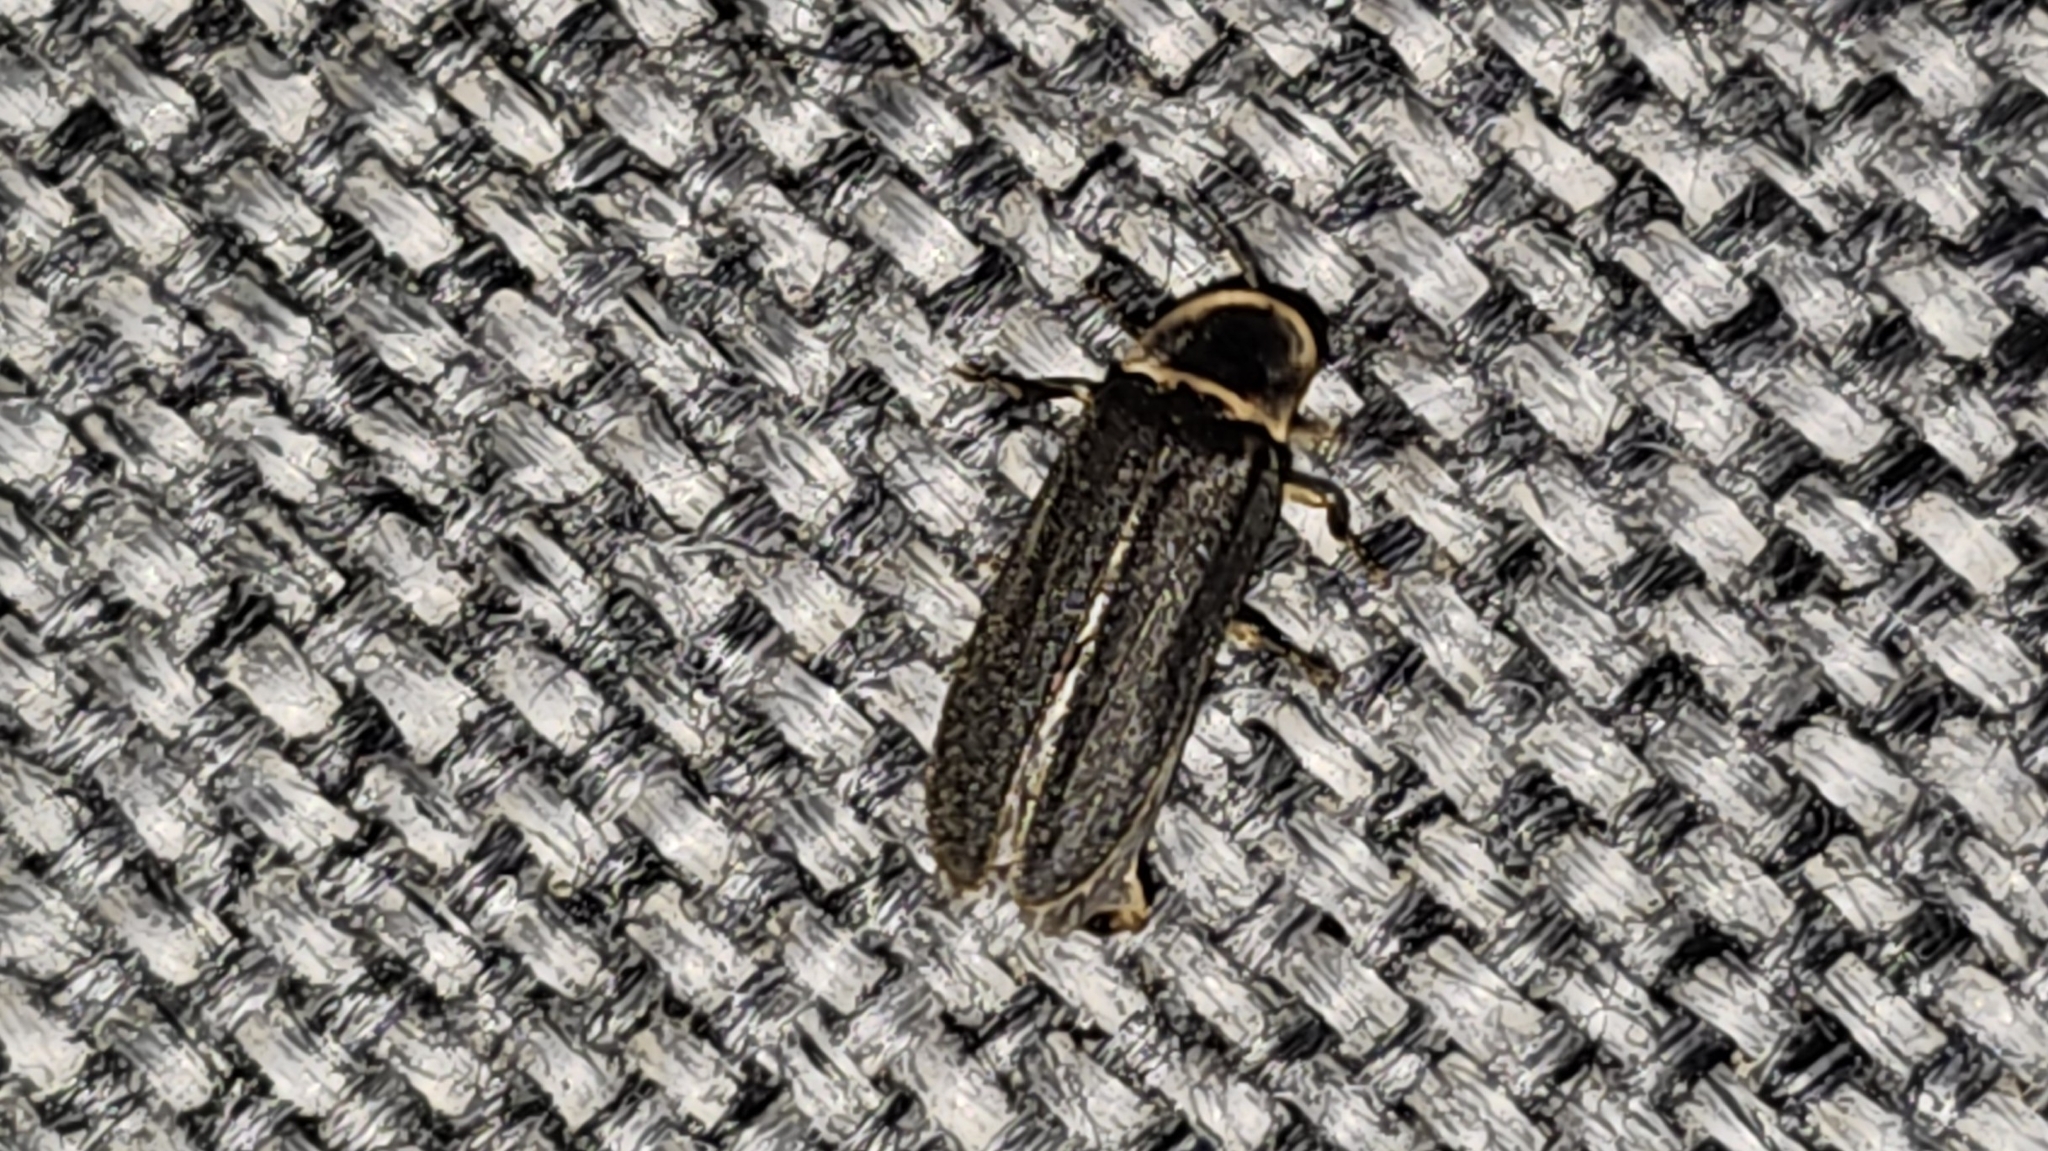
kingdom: Animalia
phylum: Arthropoda
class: Insecta
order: Coleoptera
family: Lampyridae
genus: Lampyris
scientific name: Lampyris noctiluca
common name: Glow-worm
